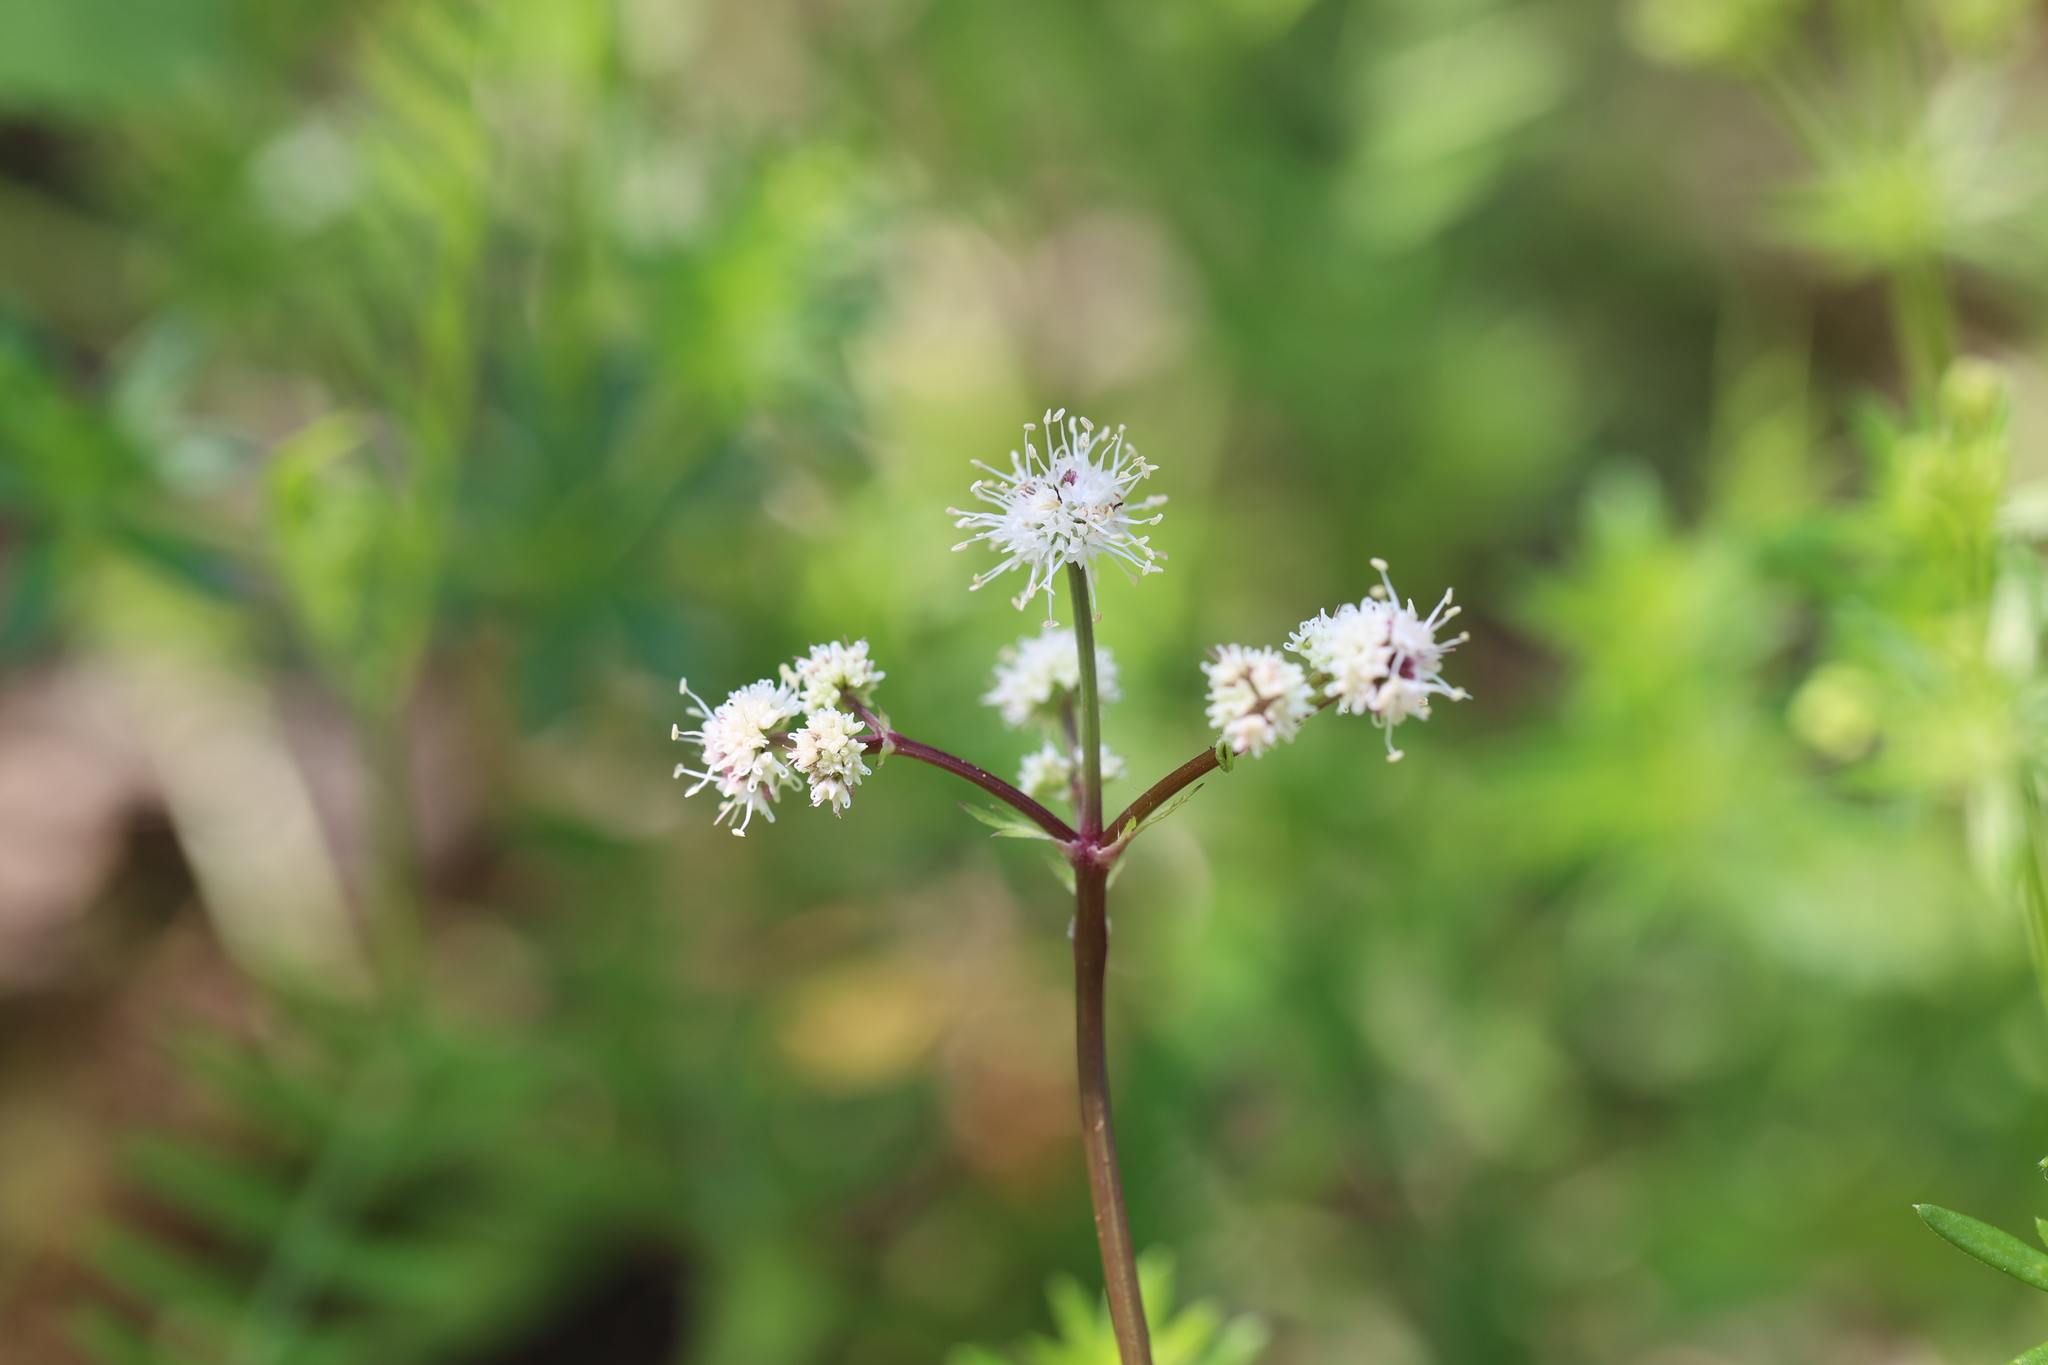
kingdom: Plantae
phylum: Tracheophyta
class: Magnoliopsida
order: Apiales
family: Apiaceae
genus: Sanicula
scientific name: Sanicula europaea
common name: Sanicle
